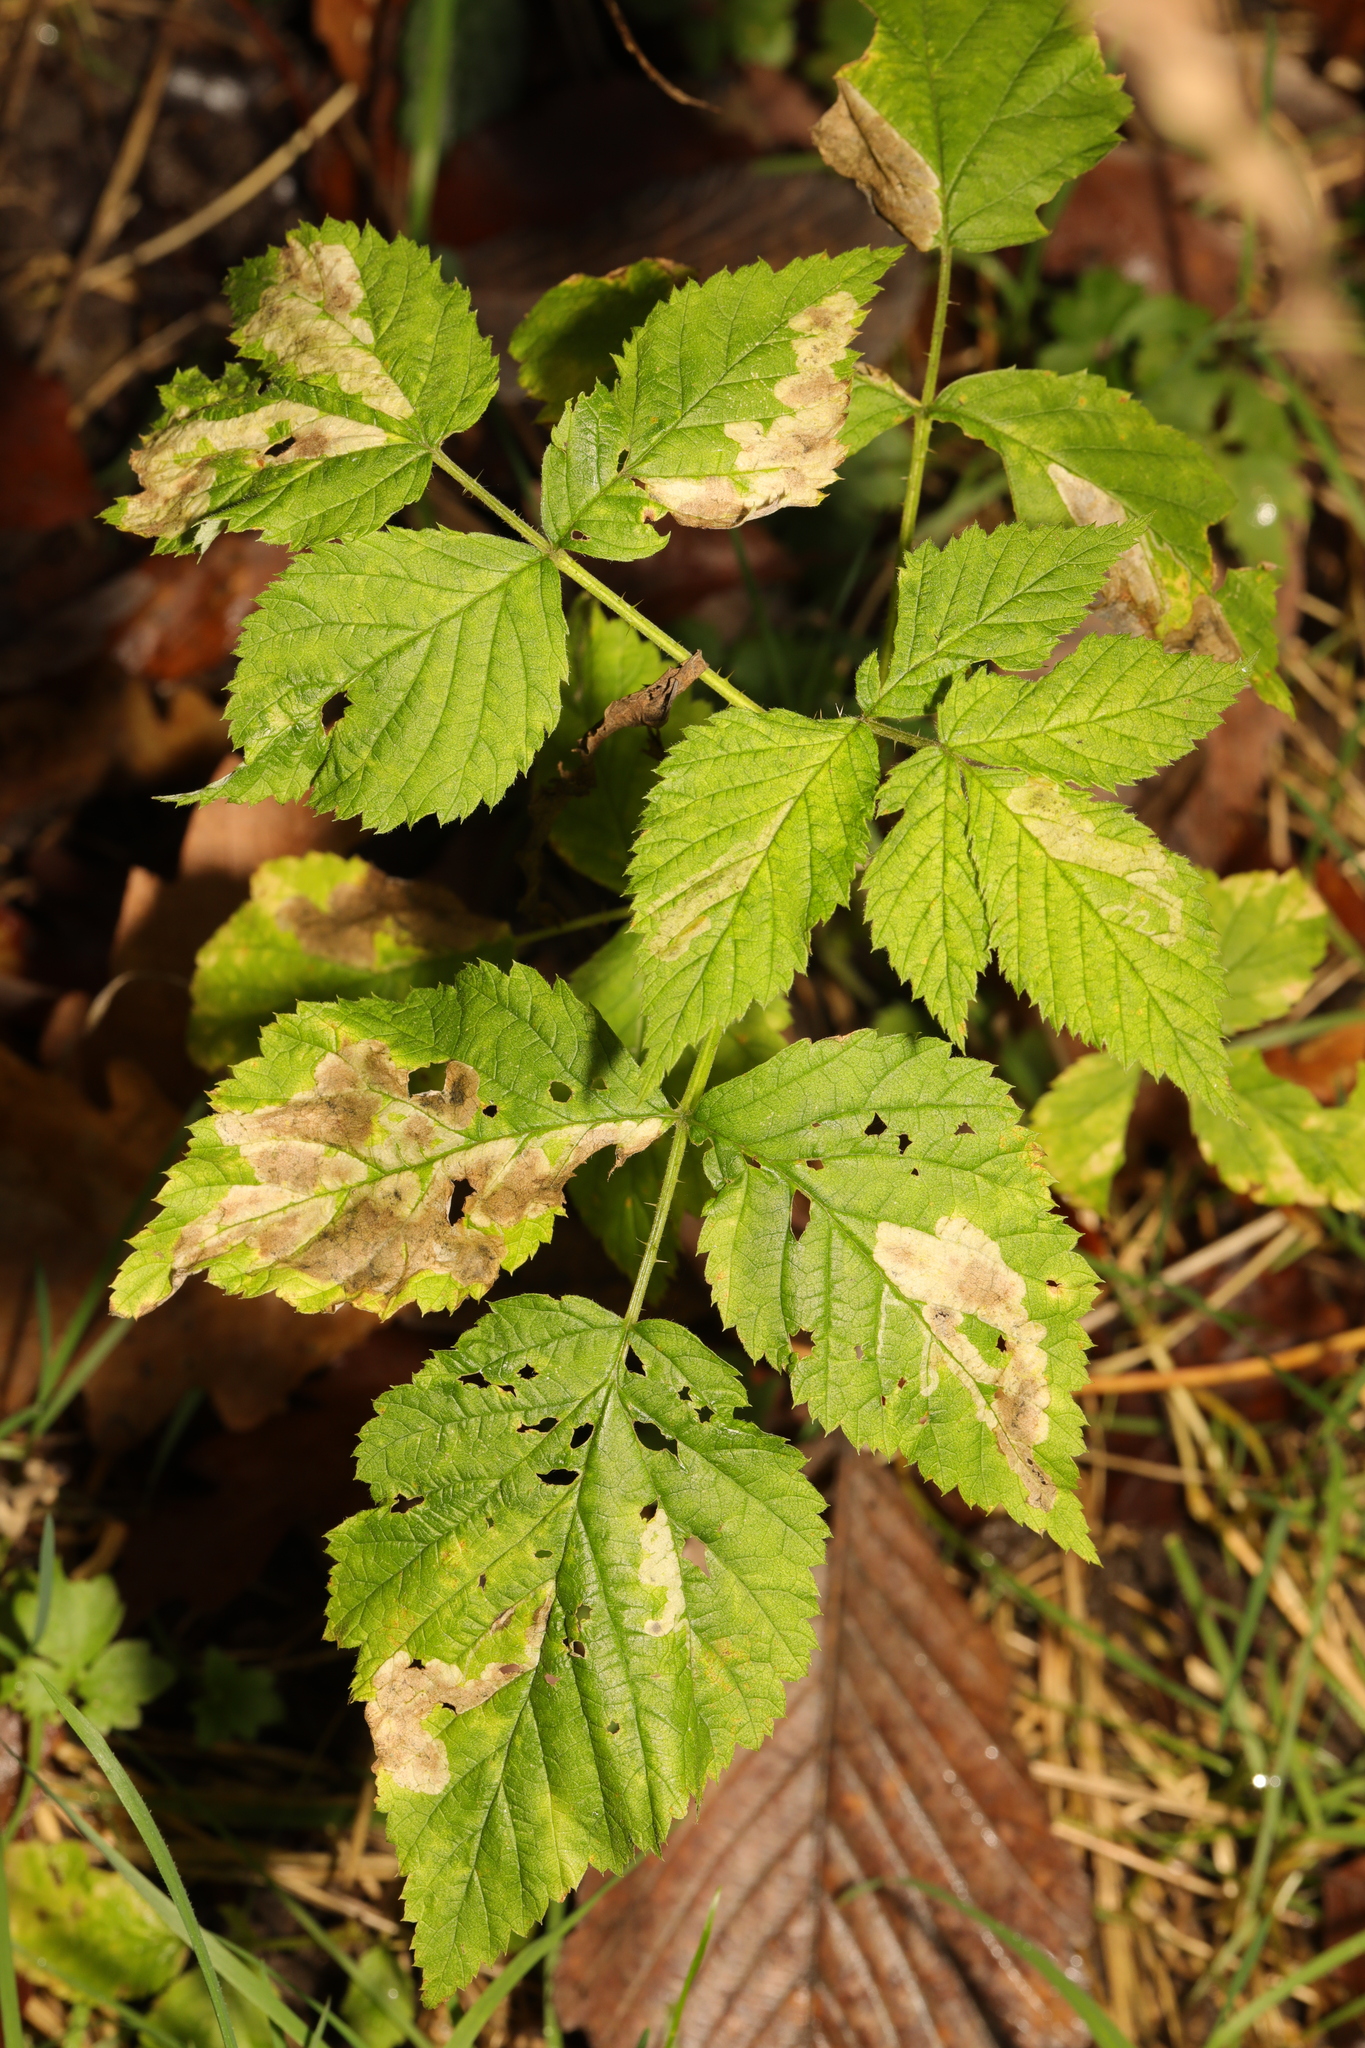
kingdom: Plantae
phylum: Tracheophyta
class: Magnoliopsida
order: Apiales
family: Apiaceae
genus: Aegopodium
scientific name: Aegopodium podagraria
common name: Ground-elder
